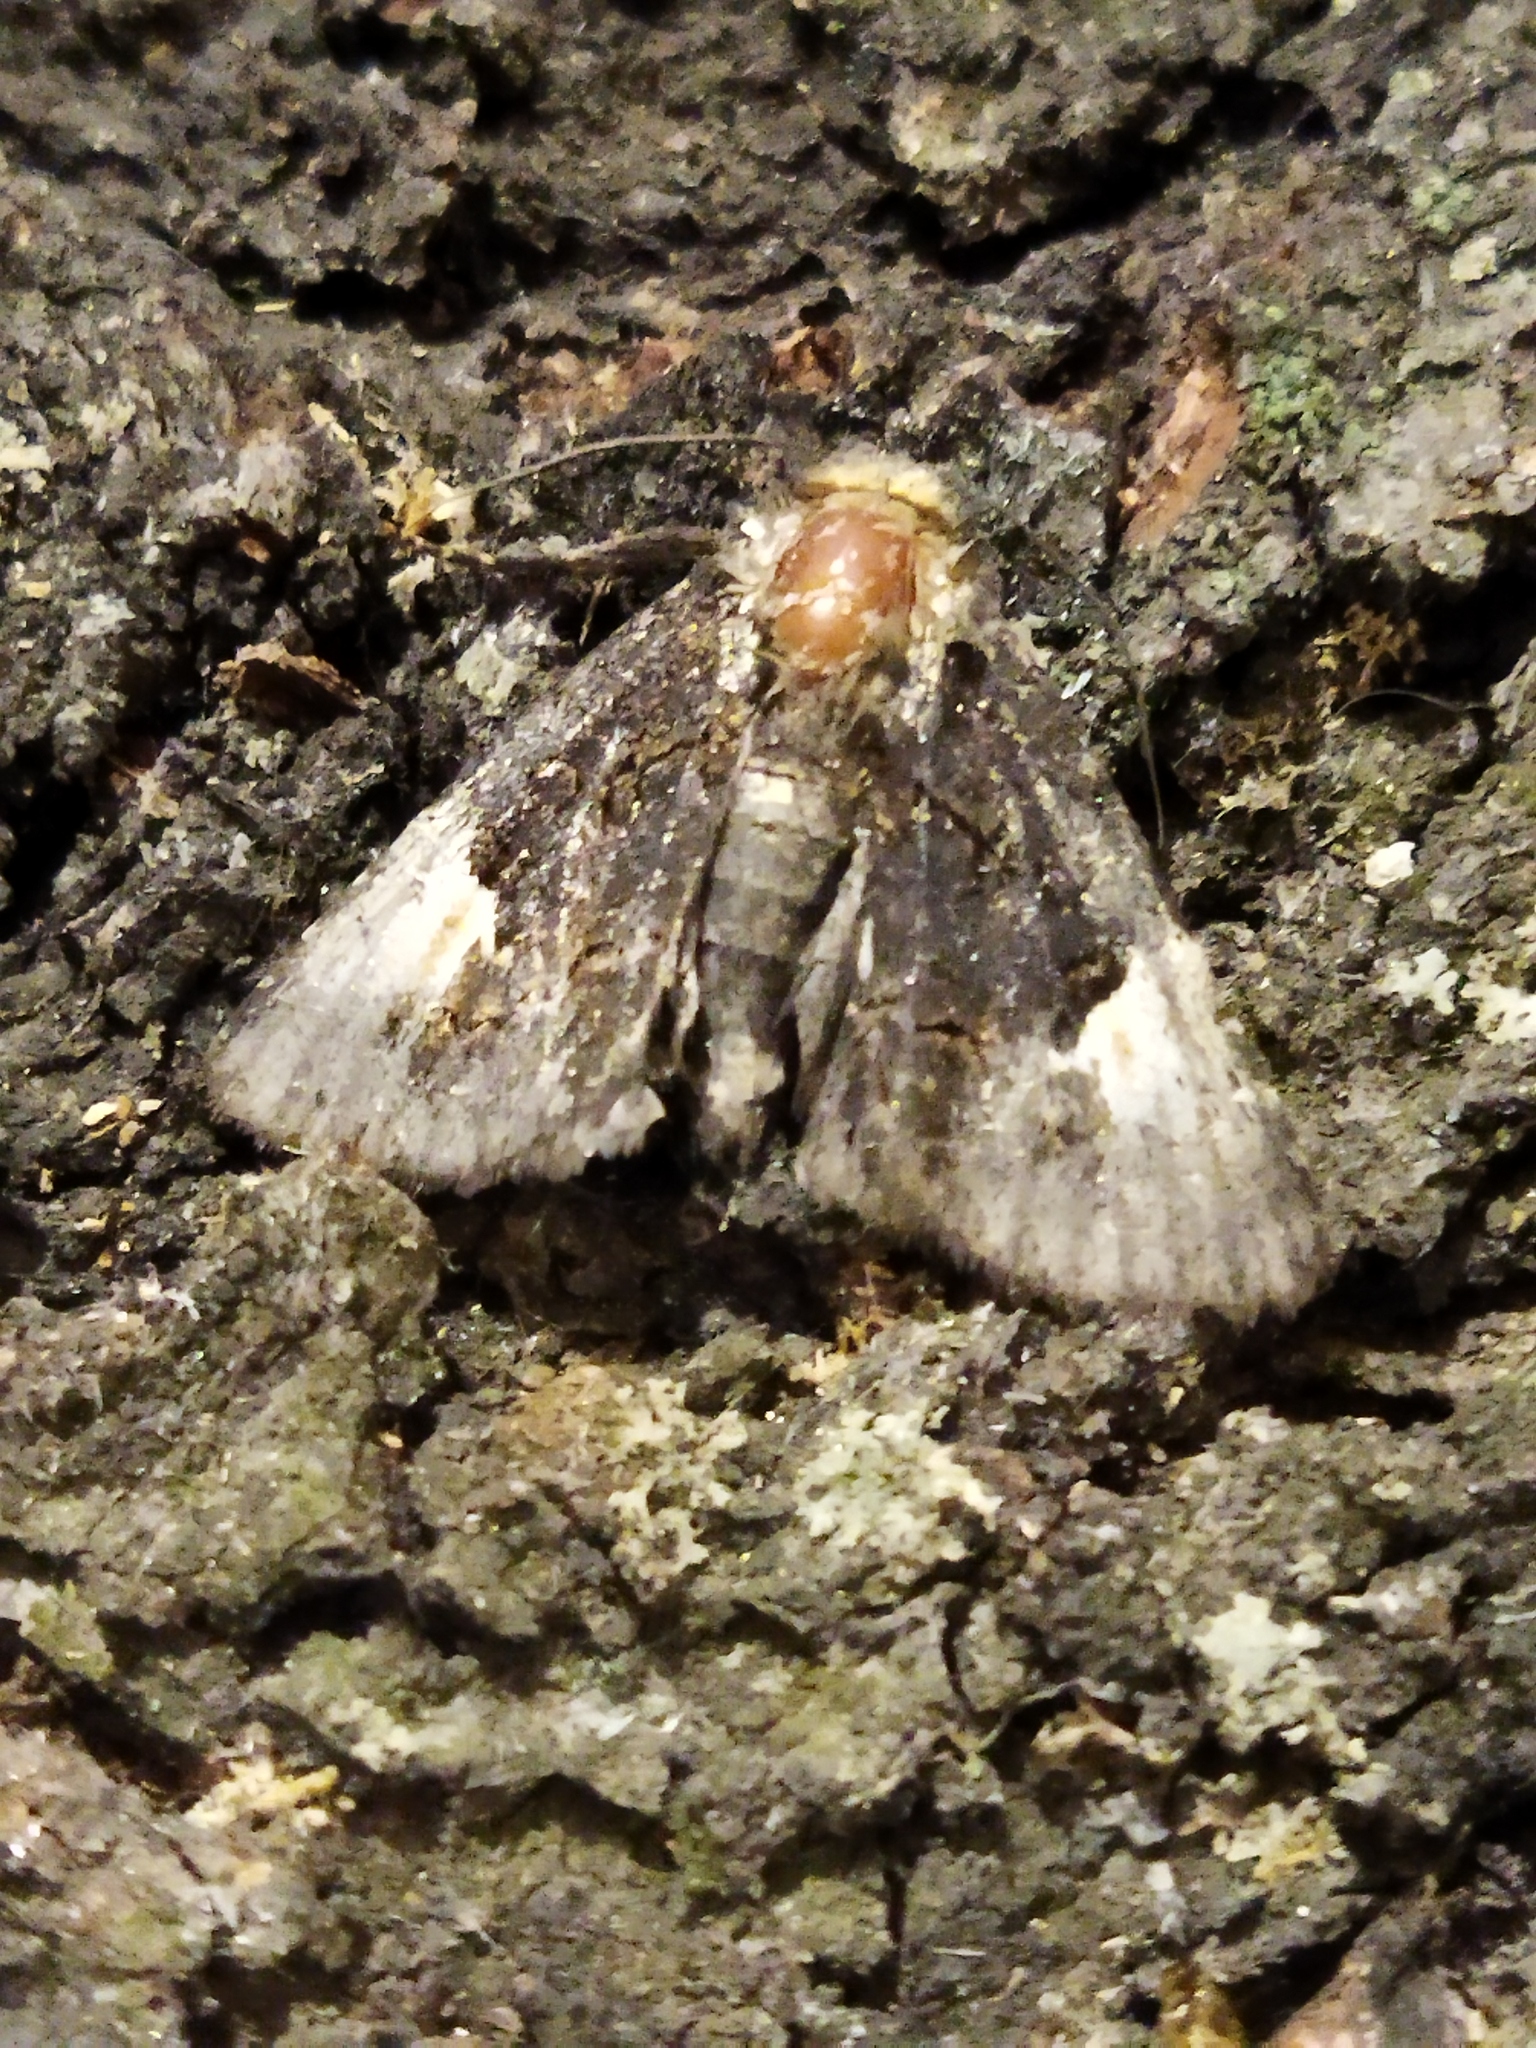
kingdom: Animalia
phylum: Arthropoda
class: Insecta
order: Lepidoptera
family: Noctuidae
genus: Aedia
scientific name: Aedia funesta
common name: The druid
